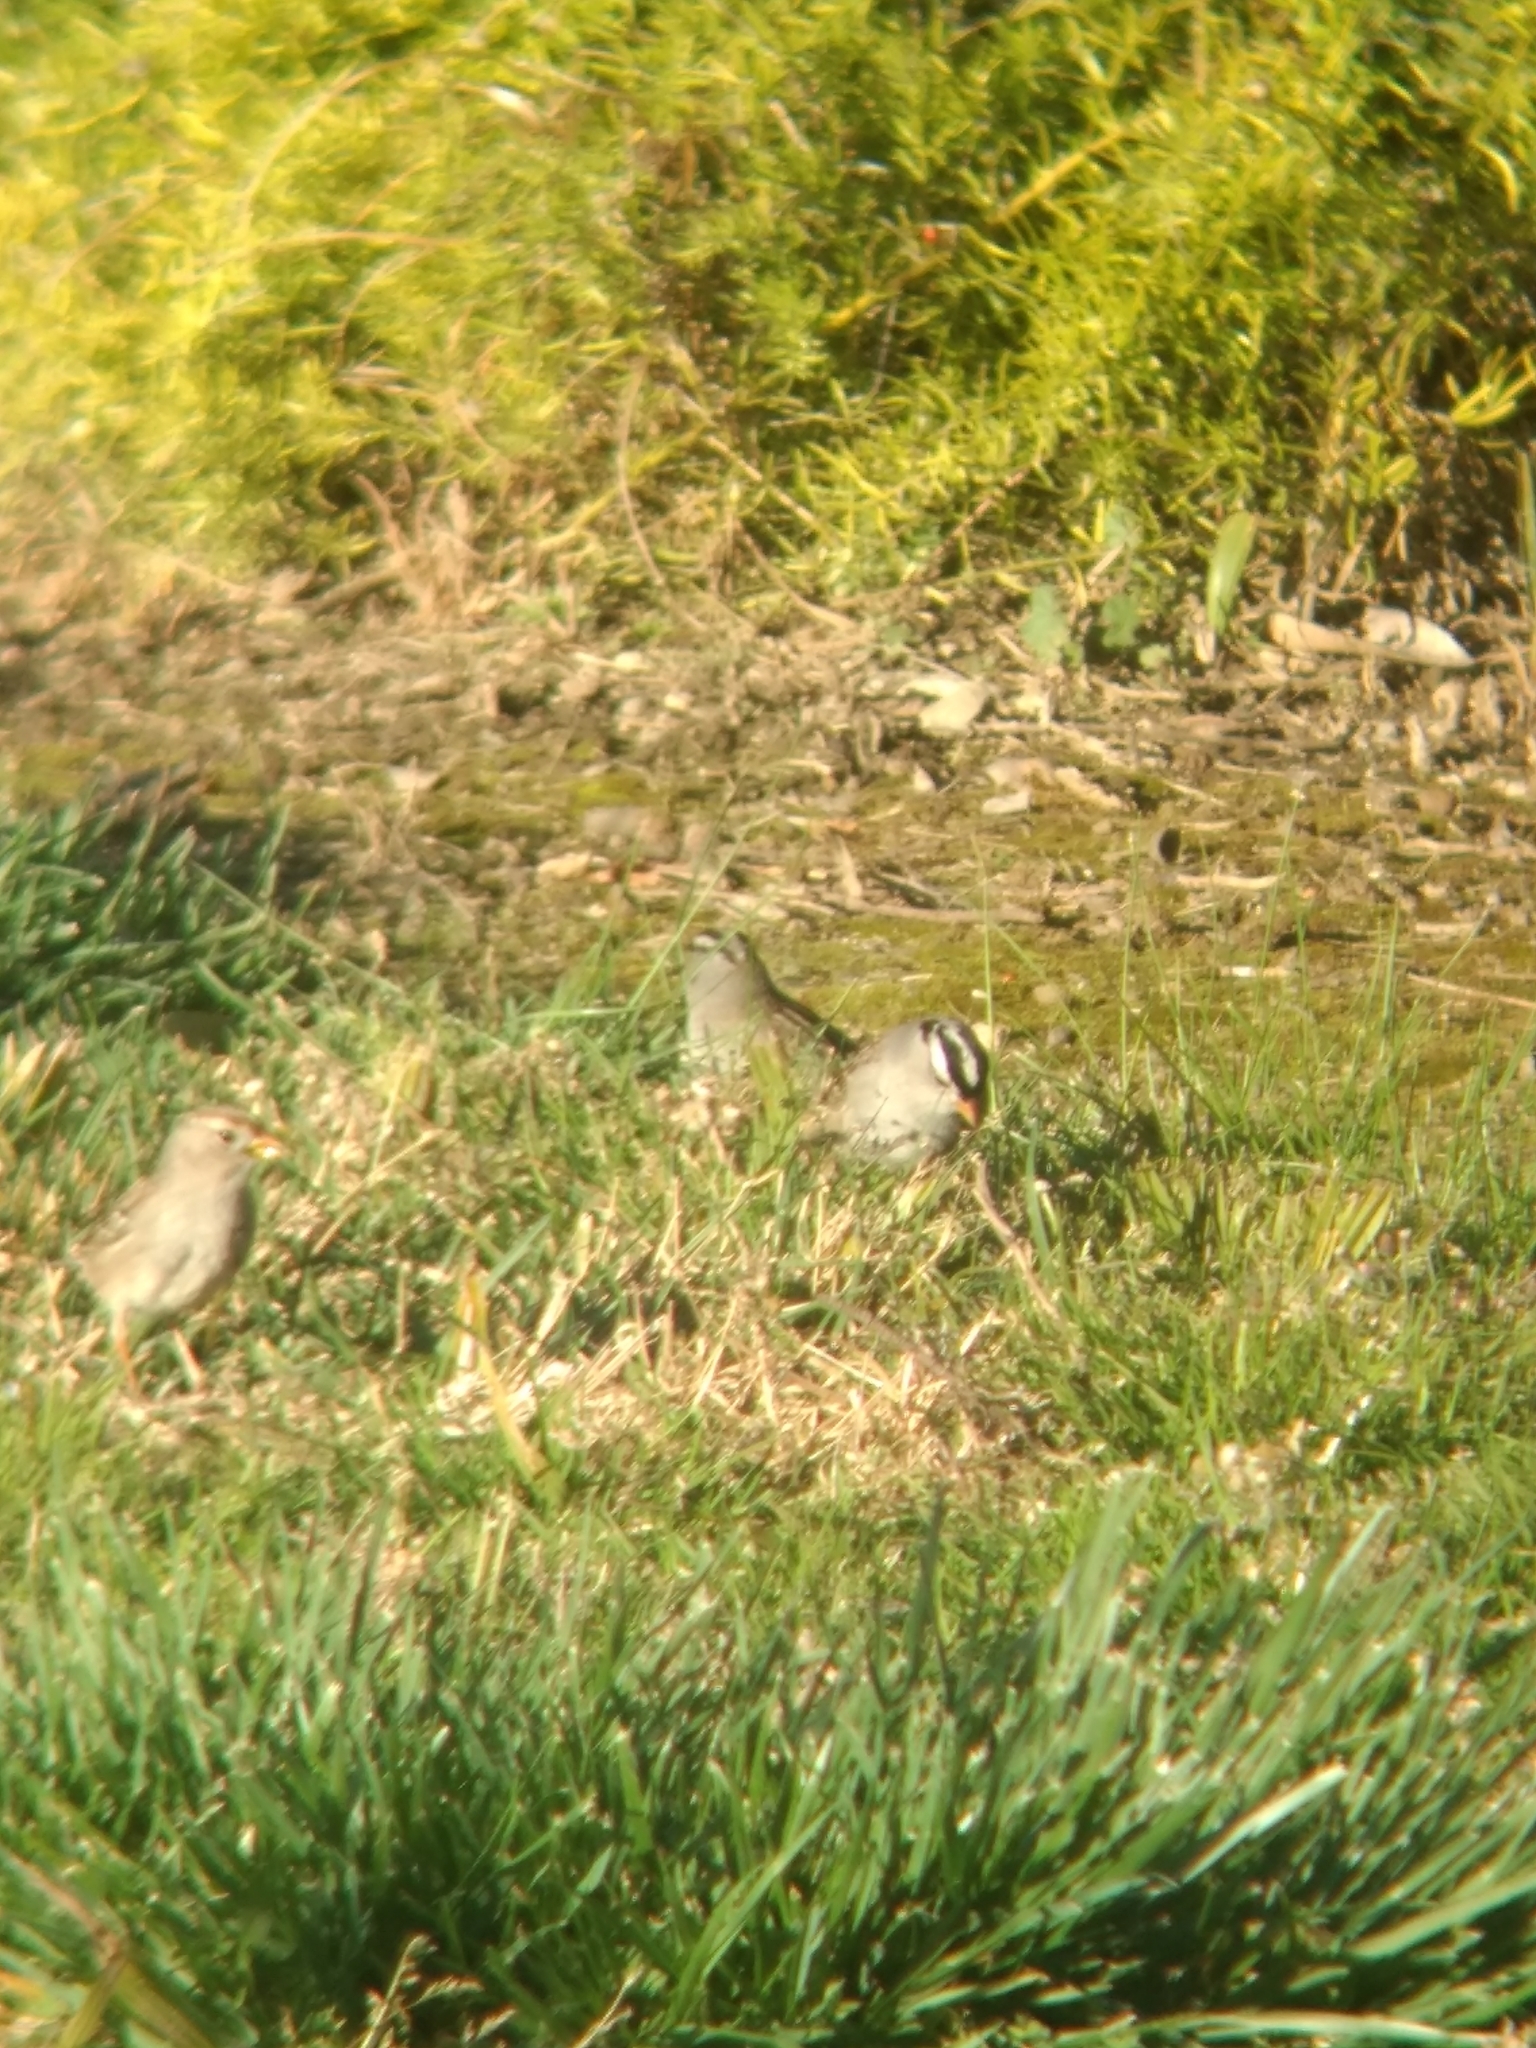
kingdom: Animalia
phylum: Chordata
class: Aves
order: Passeriformes
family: Passerellidae
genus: Zonotrichia
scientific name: Zonotrichia leucophrys
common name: White-crowned sparrow
